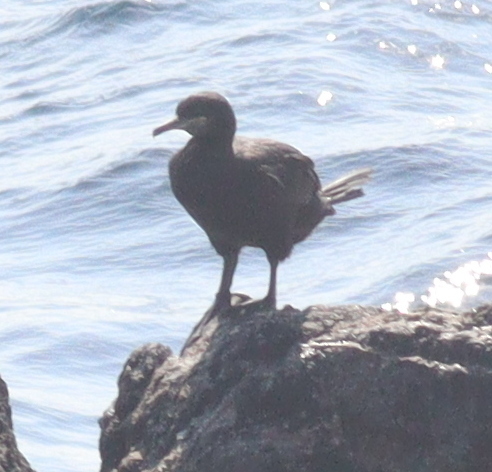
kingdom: Animalia
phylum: Chordata
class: Aves
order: Suliformes
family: Phalacrocoracidae
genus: Phalacrocorax
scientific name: Phalacrocorax aristotelis
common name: European shag
